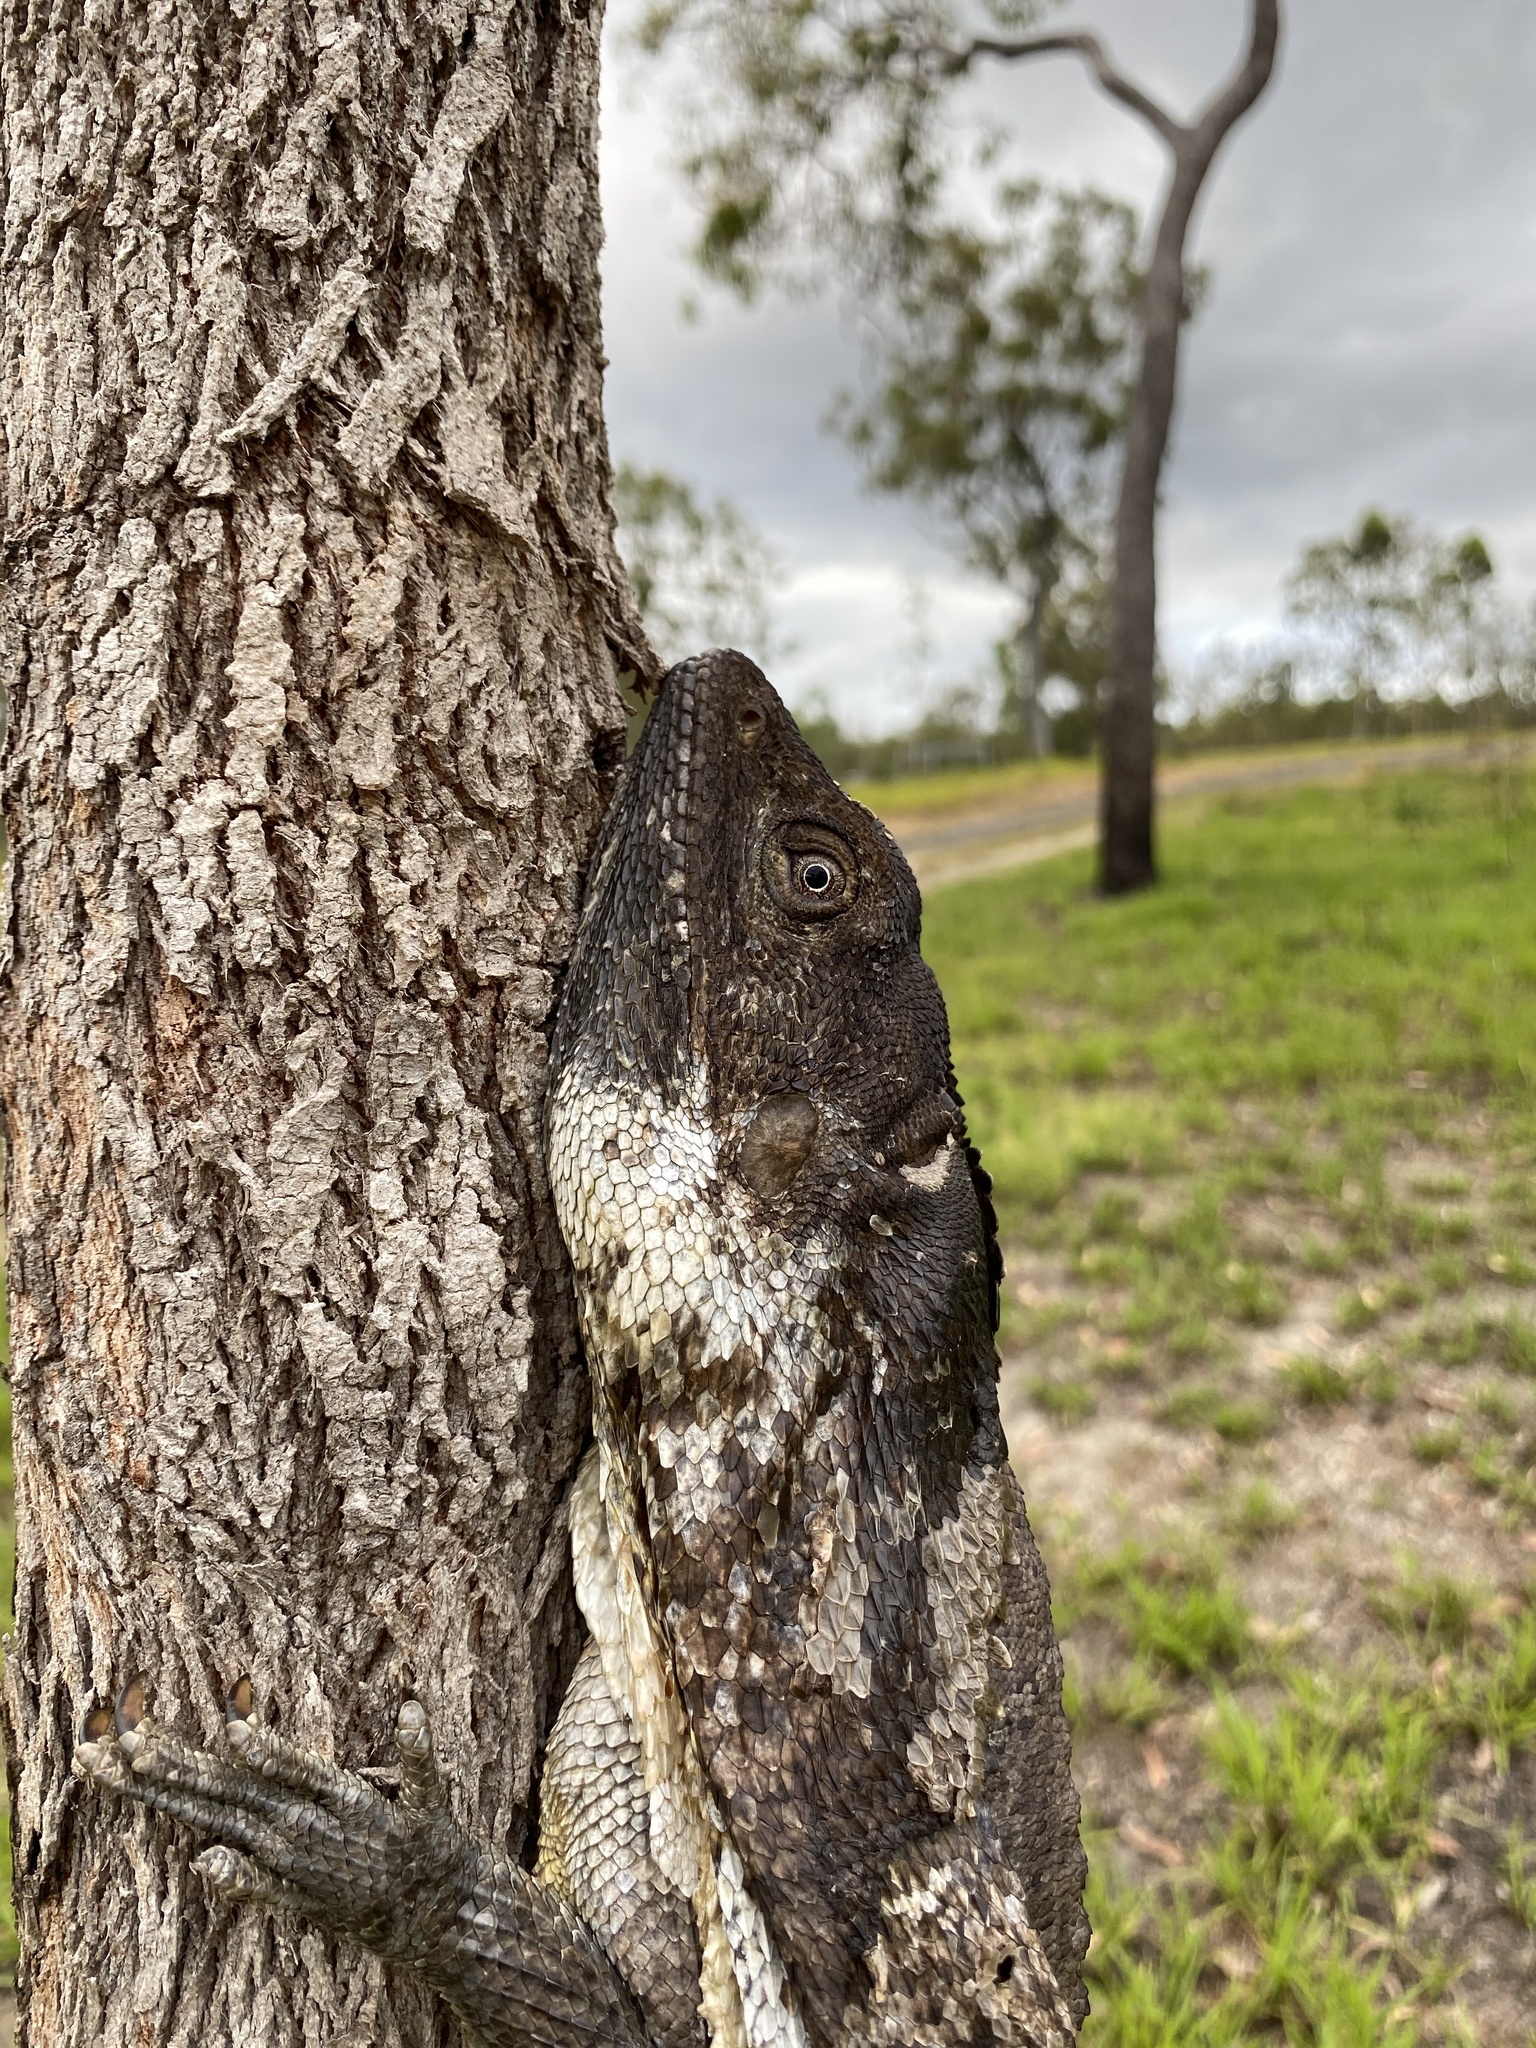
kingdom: Animalia
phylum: Chordata
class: Squamata
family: Agamidae
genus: Chlamydosaurus
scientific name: Chlamydosaurus kingii
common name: Frilled lizard
